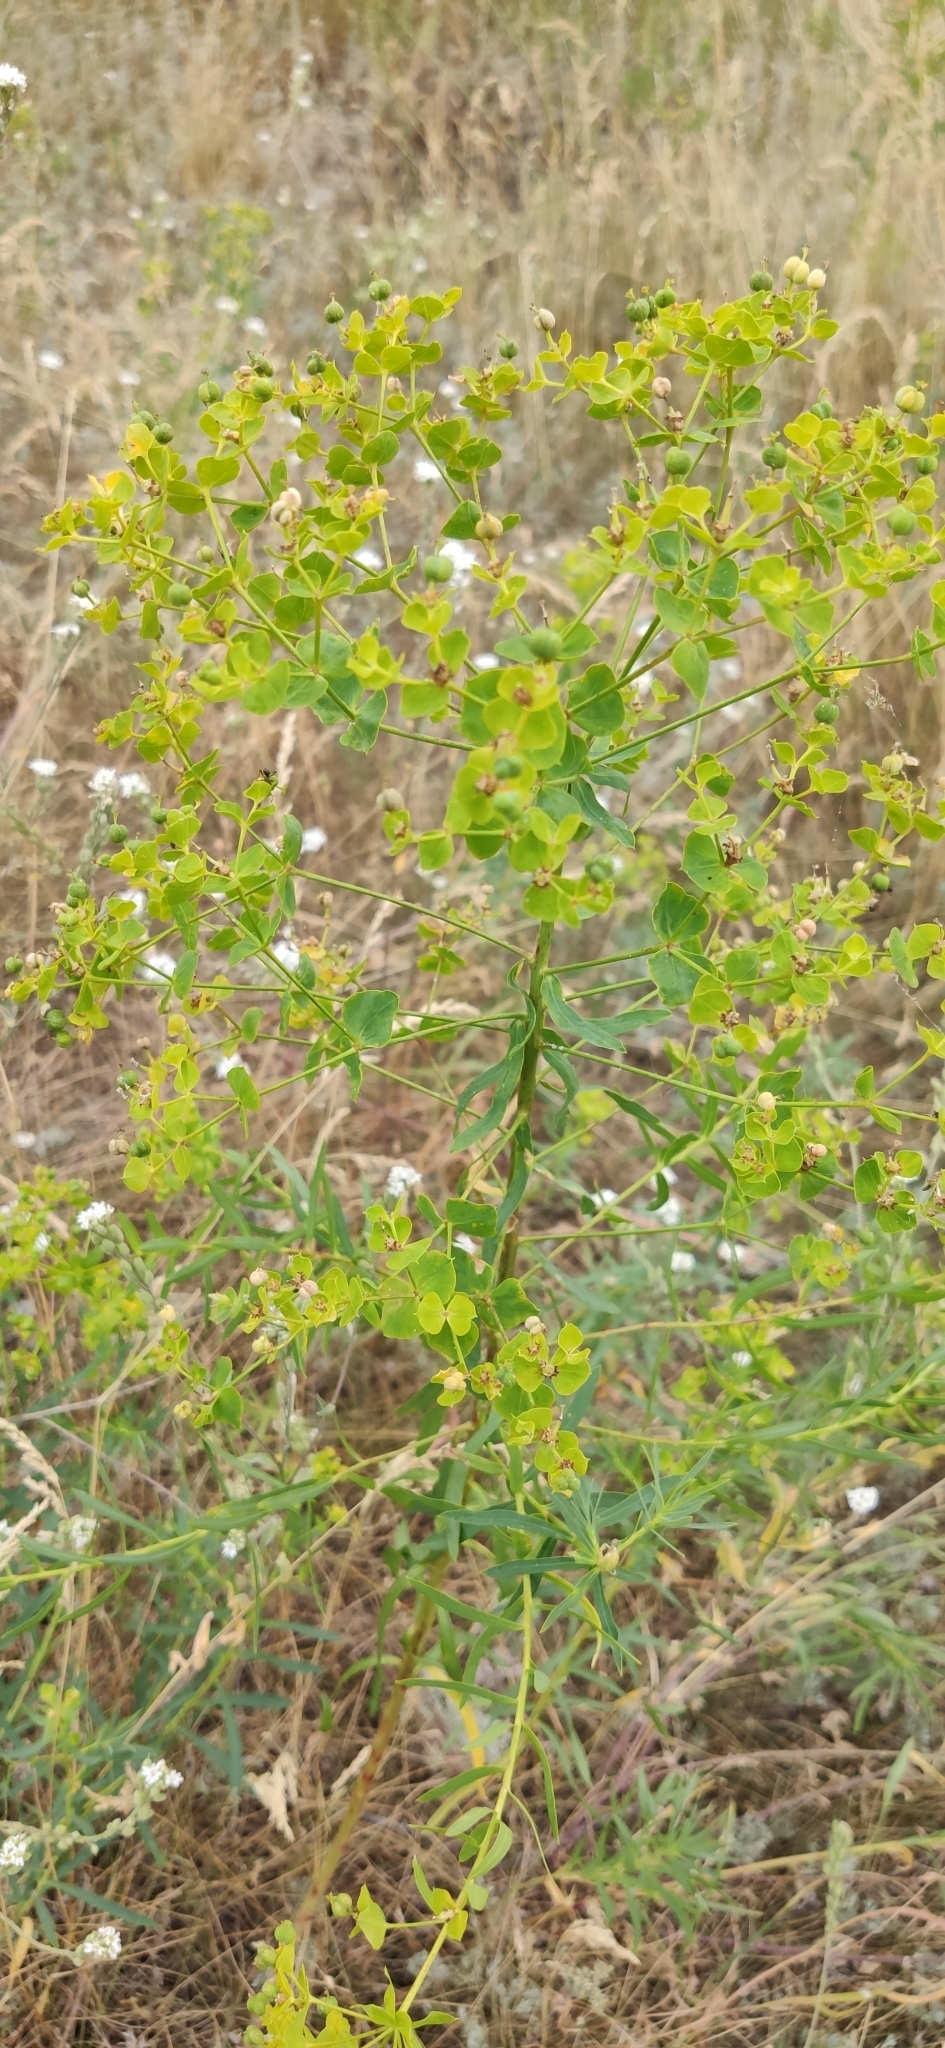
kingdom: Plantae
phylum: Tracheophyta
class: Magnoliopsida
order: Malpighiales
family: Euphorbiaceae
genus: Euphorbia
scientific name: Euphorbia virgata
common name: Leafy spurge
